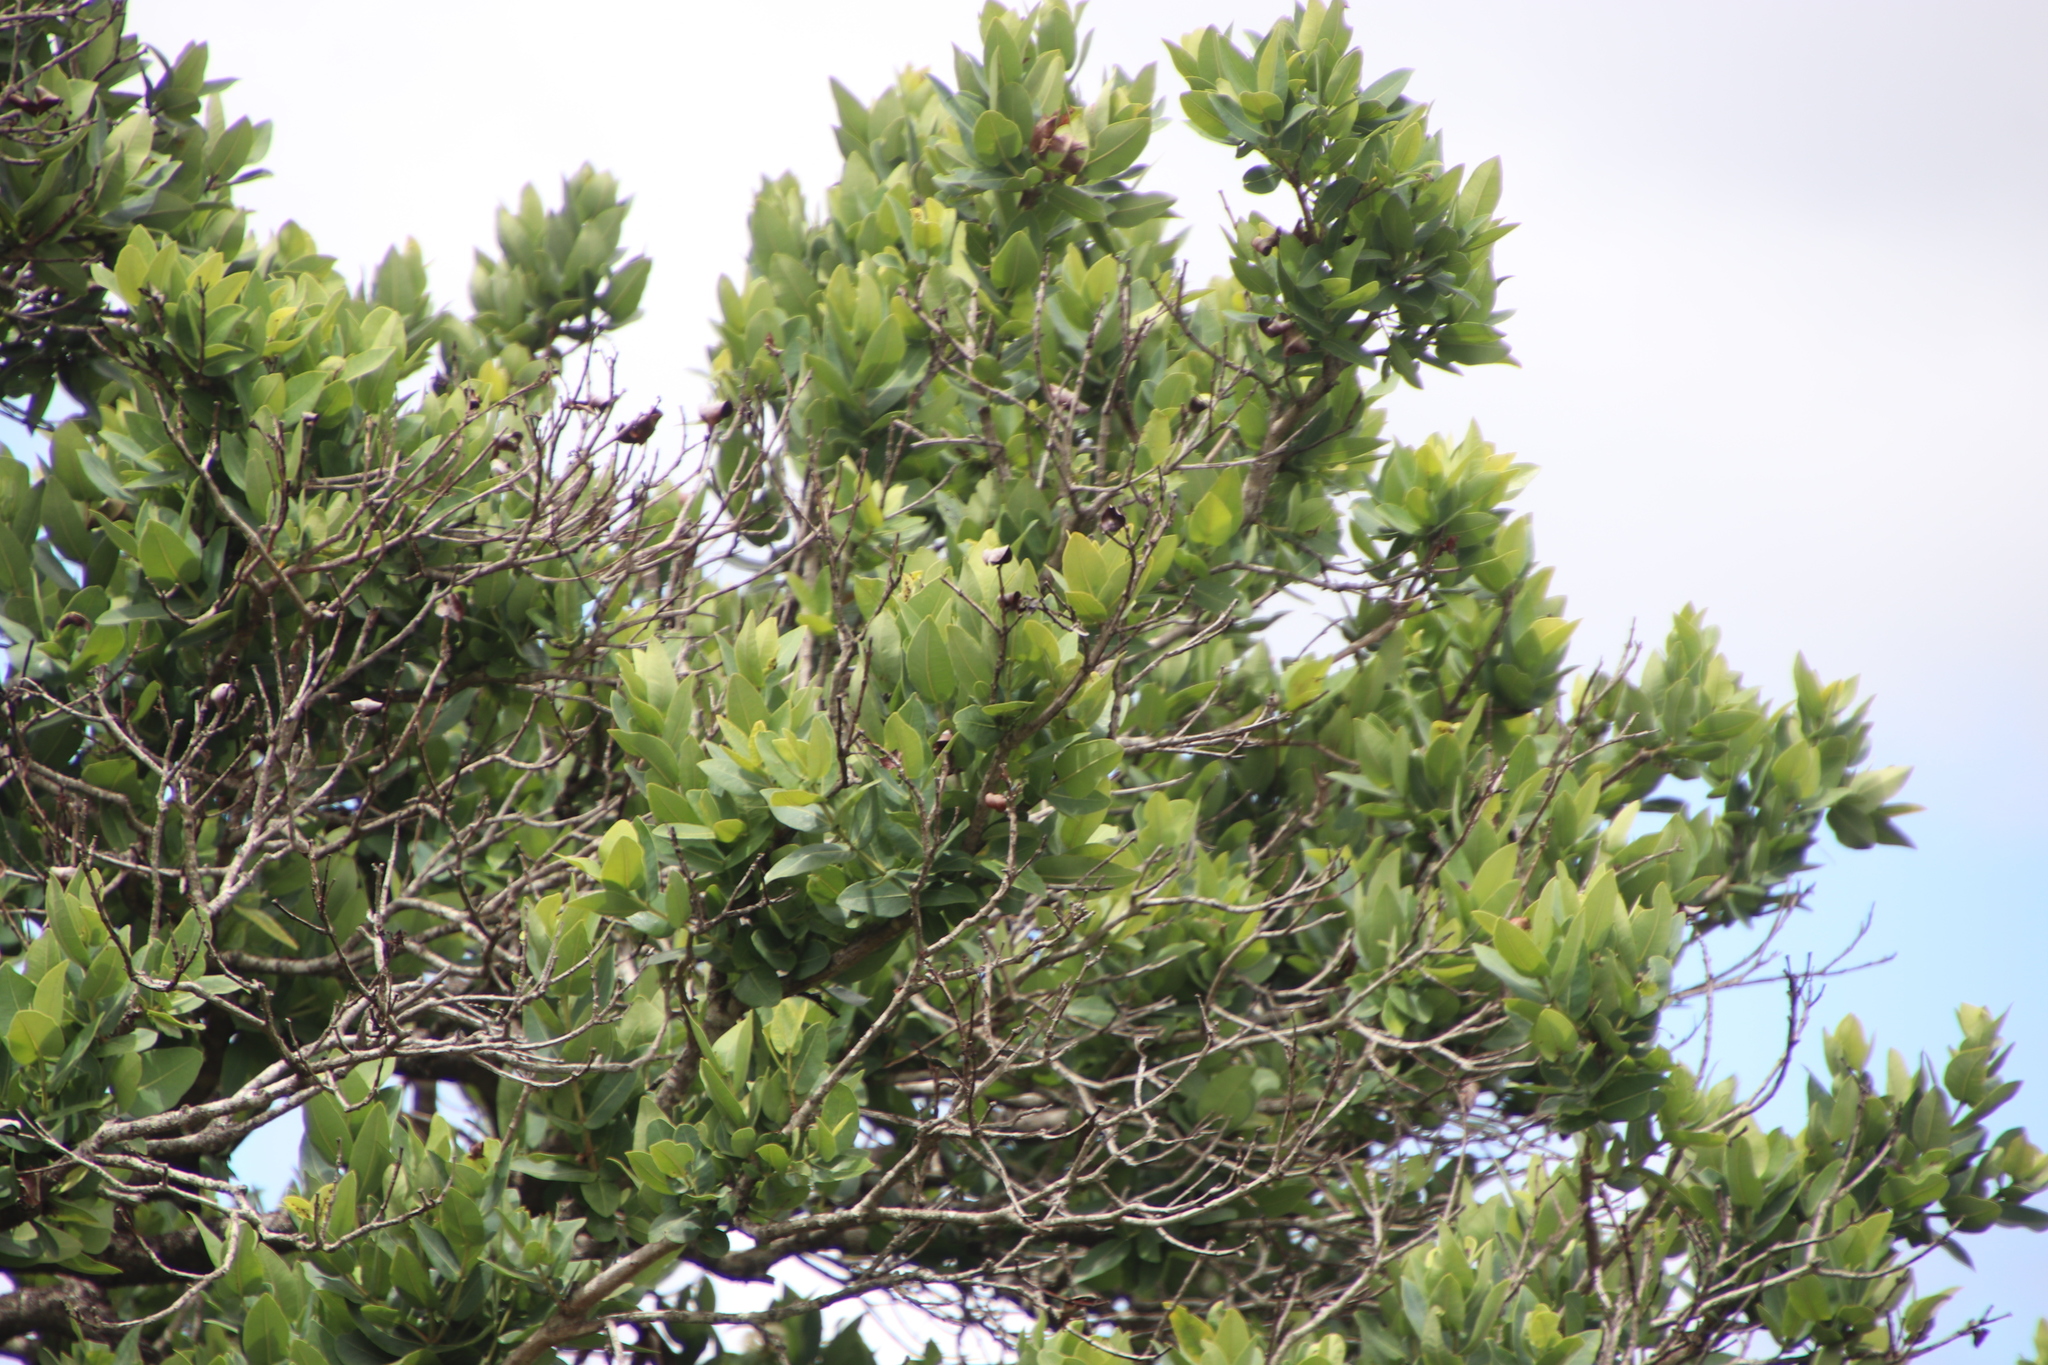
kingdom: Plantae
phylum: Tracheophyta
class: Magnoliopsida
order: Myrtales
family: Myrtaceae
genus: Syzygium
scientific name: Syzygium cordatum
